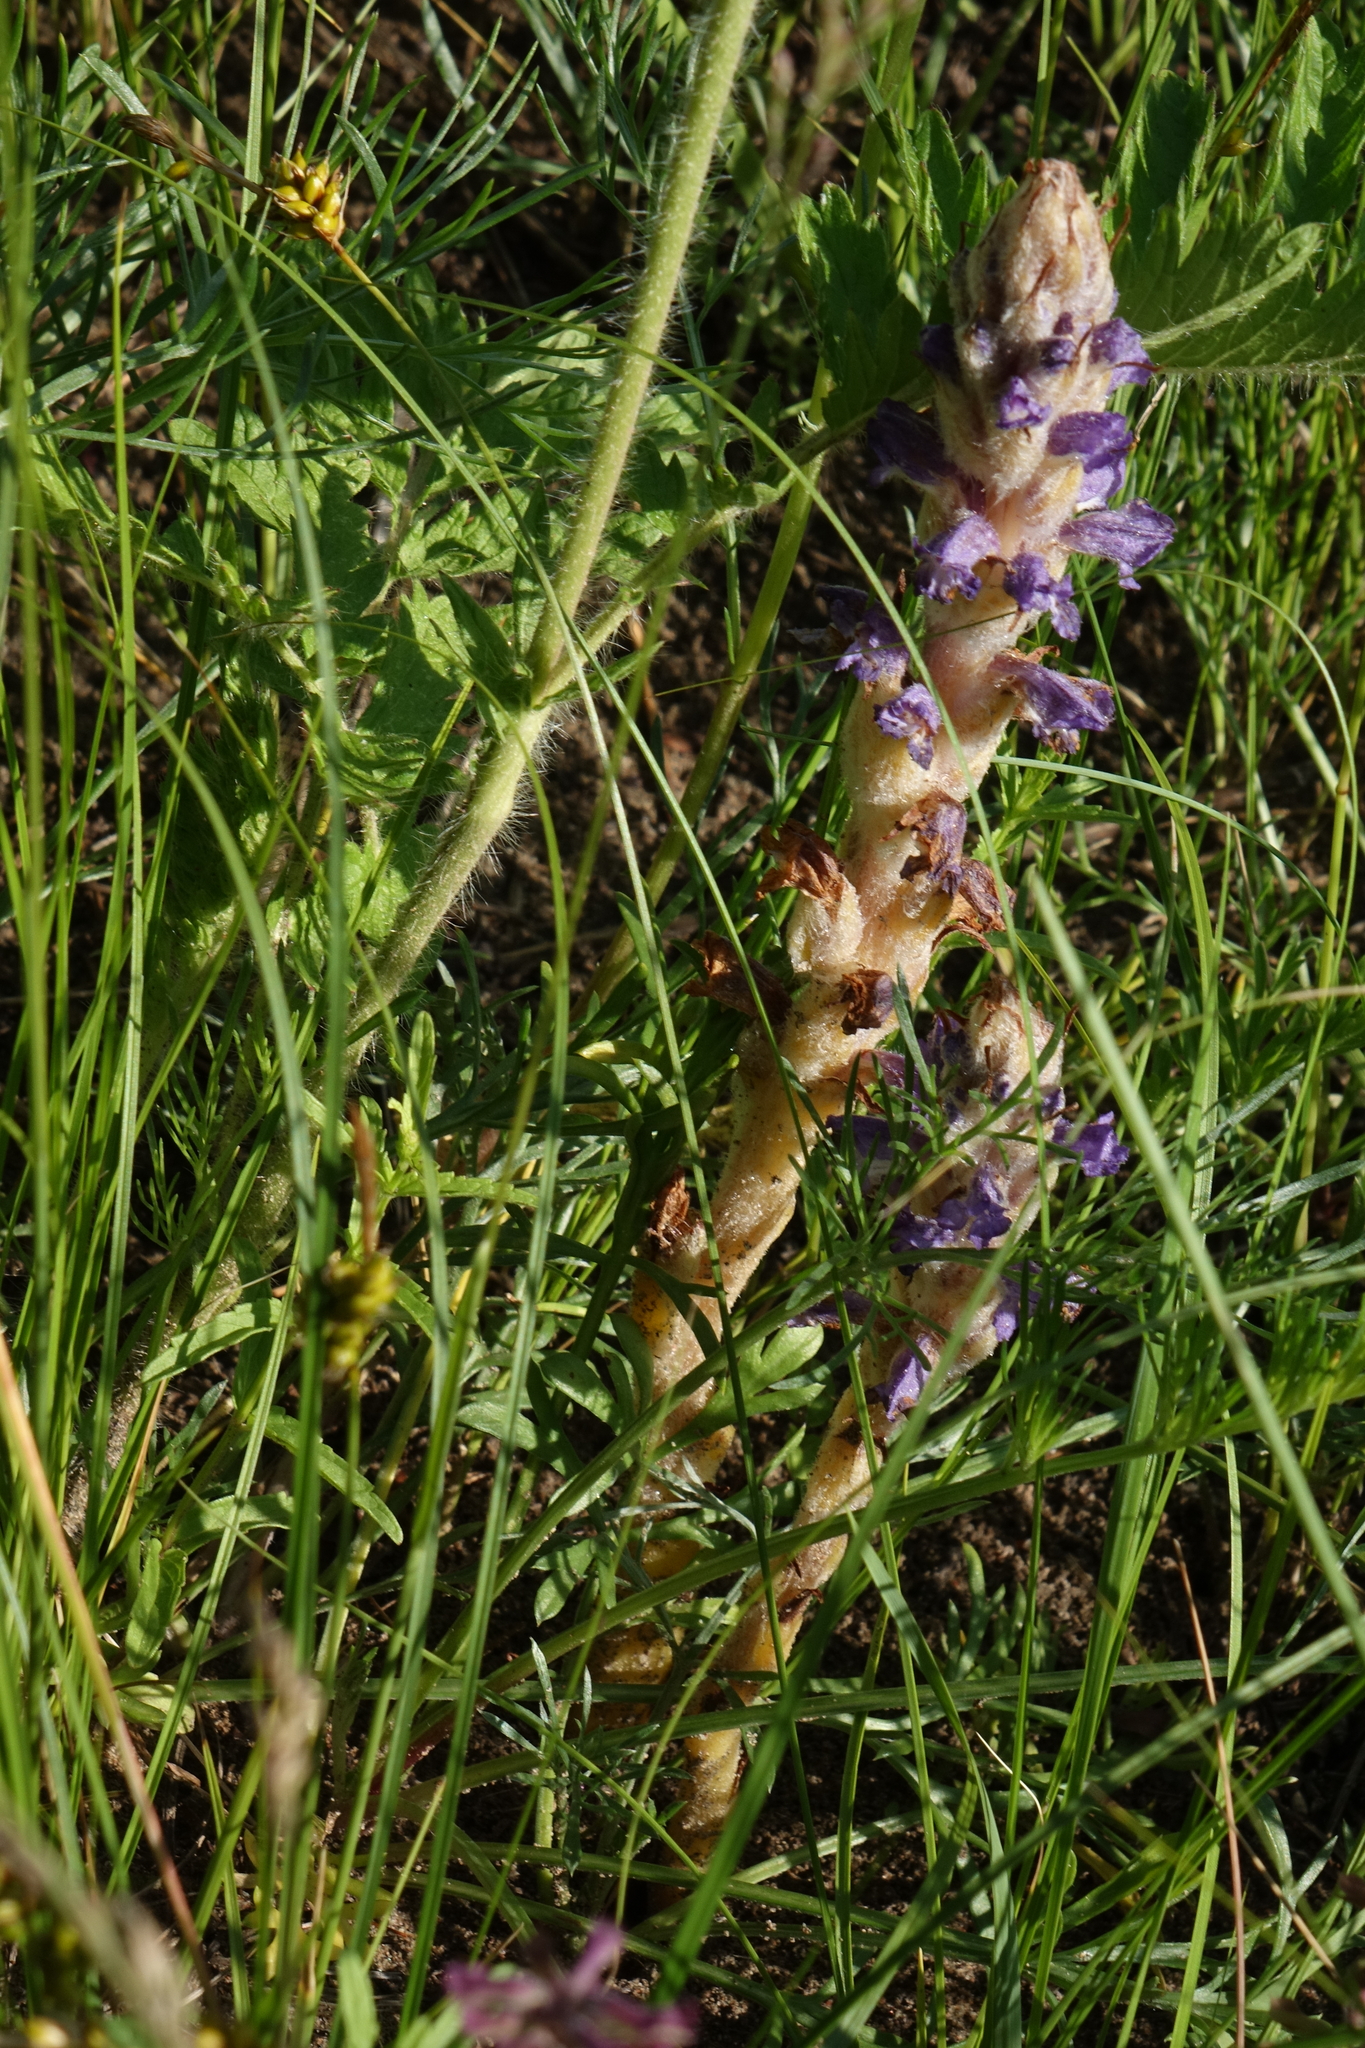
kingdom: Plantae
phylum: Tracheophyta
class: Magnoliopsida
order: Lamiales
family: Orobanchaceae
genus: Orobanche
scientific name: Orobanche coerulescens
